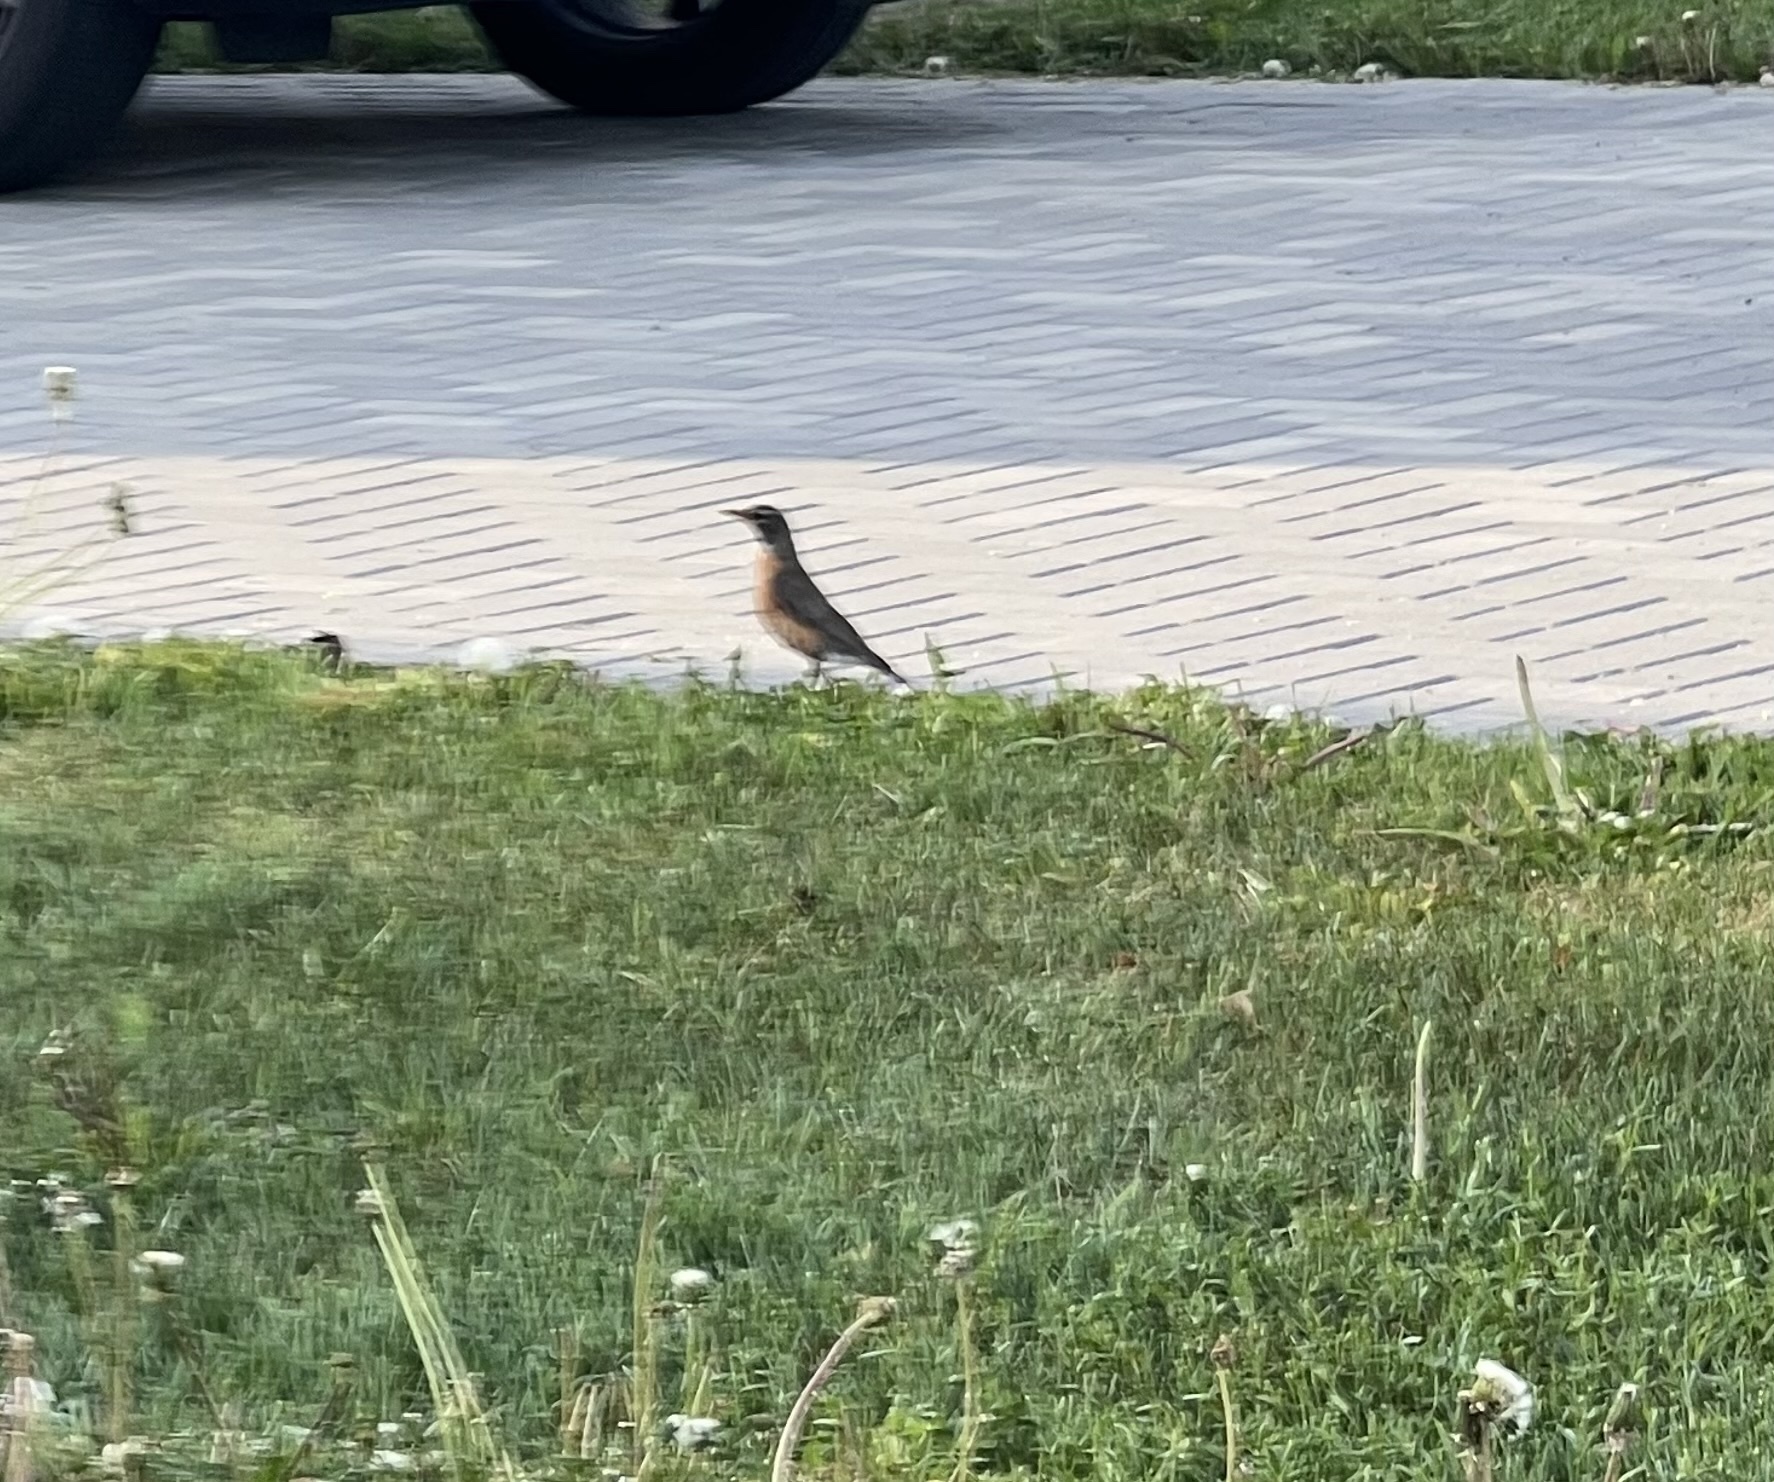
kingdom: Animalia
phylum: Chordata
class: Aves
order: Passeriformes
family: Turdidae
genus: Turdus
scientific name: Turdus migratorius
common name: American robin
